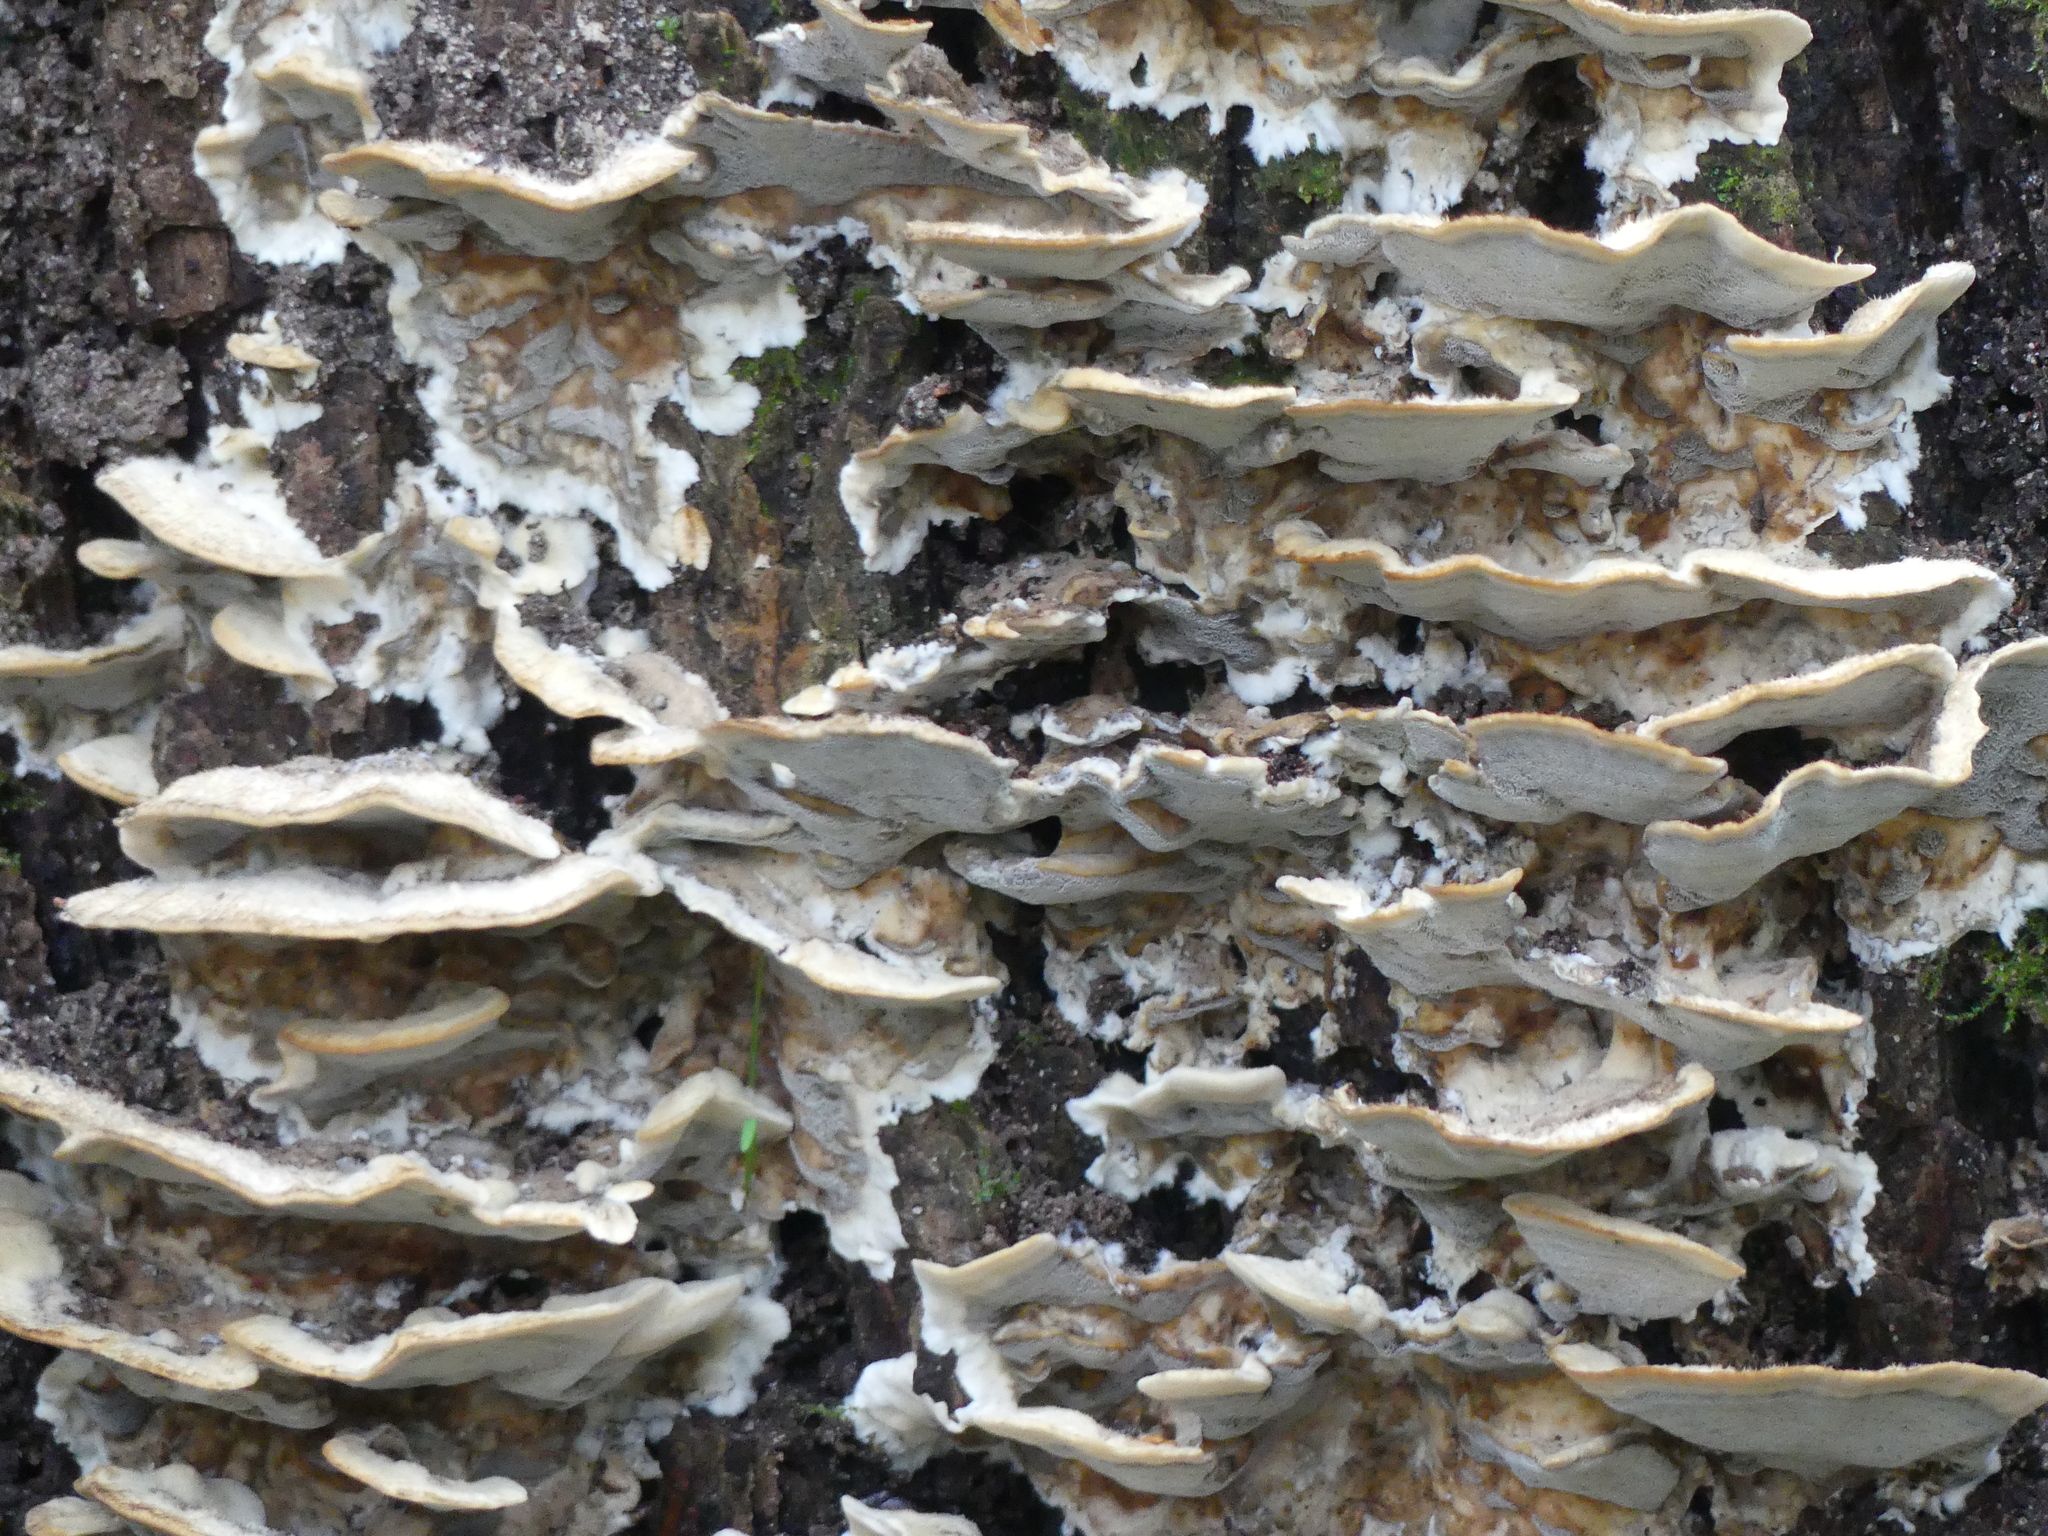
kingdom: Fungi
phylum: Basidiomycota
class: Agaricomycetes
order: Polyporales
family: Phanerochaetaceae
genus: Bjerkandera
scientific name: Bjerkandera adusta
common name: Smoky bracket
